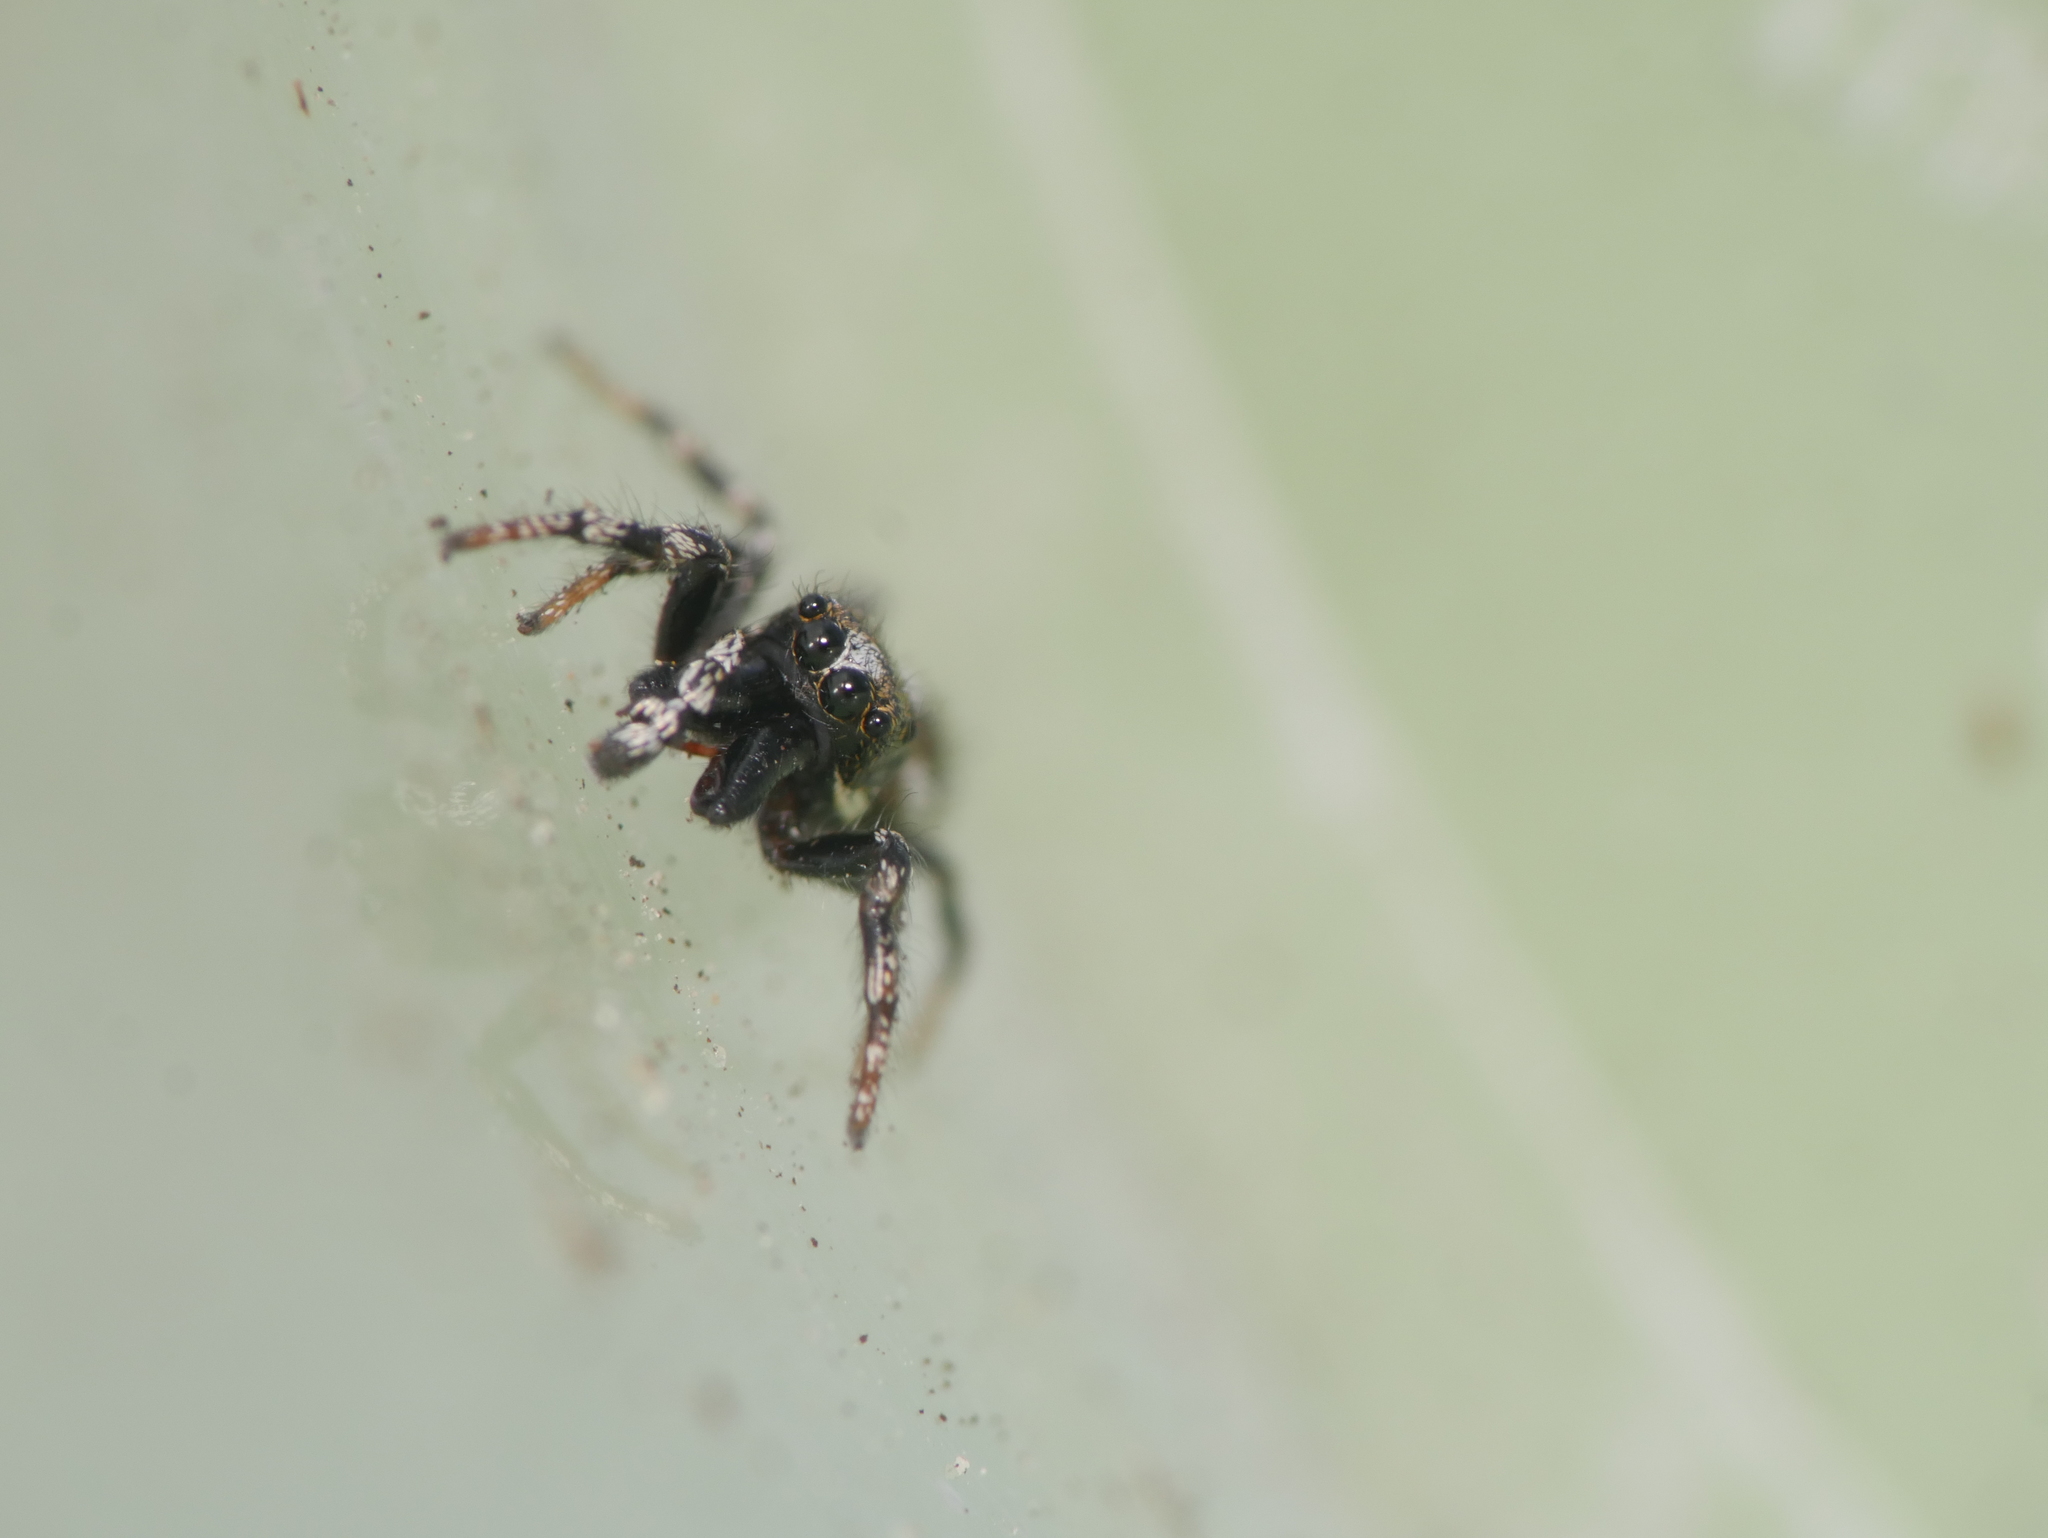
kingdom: Animalia
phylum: Arthropoda
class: Arachnida
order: Araneae
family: Salticidae
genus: Salticus
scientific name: Salticus scenicus
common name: Zebra jumper
